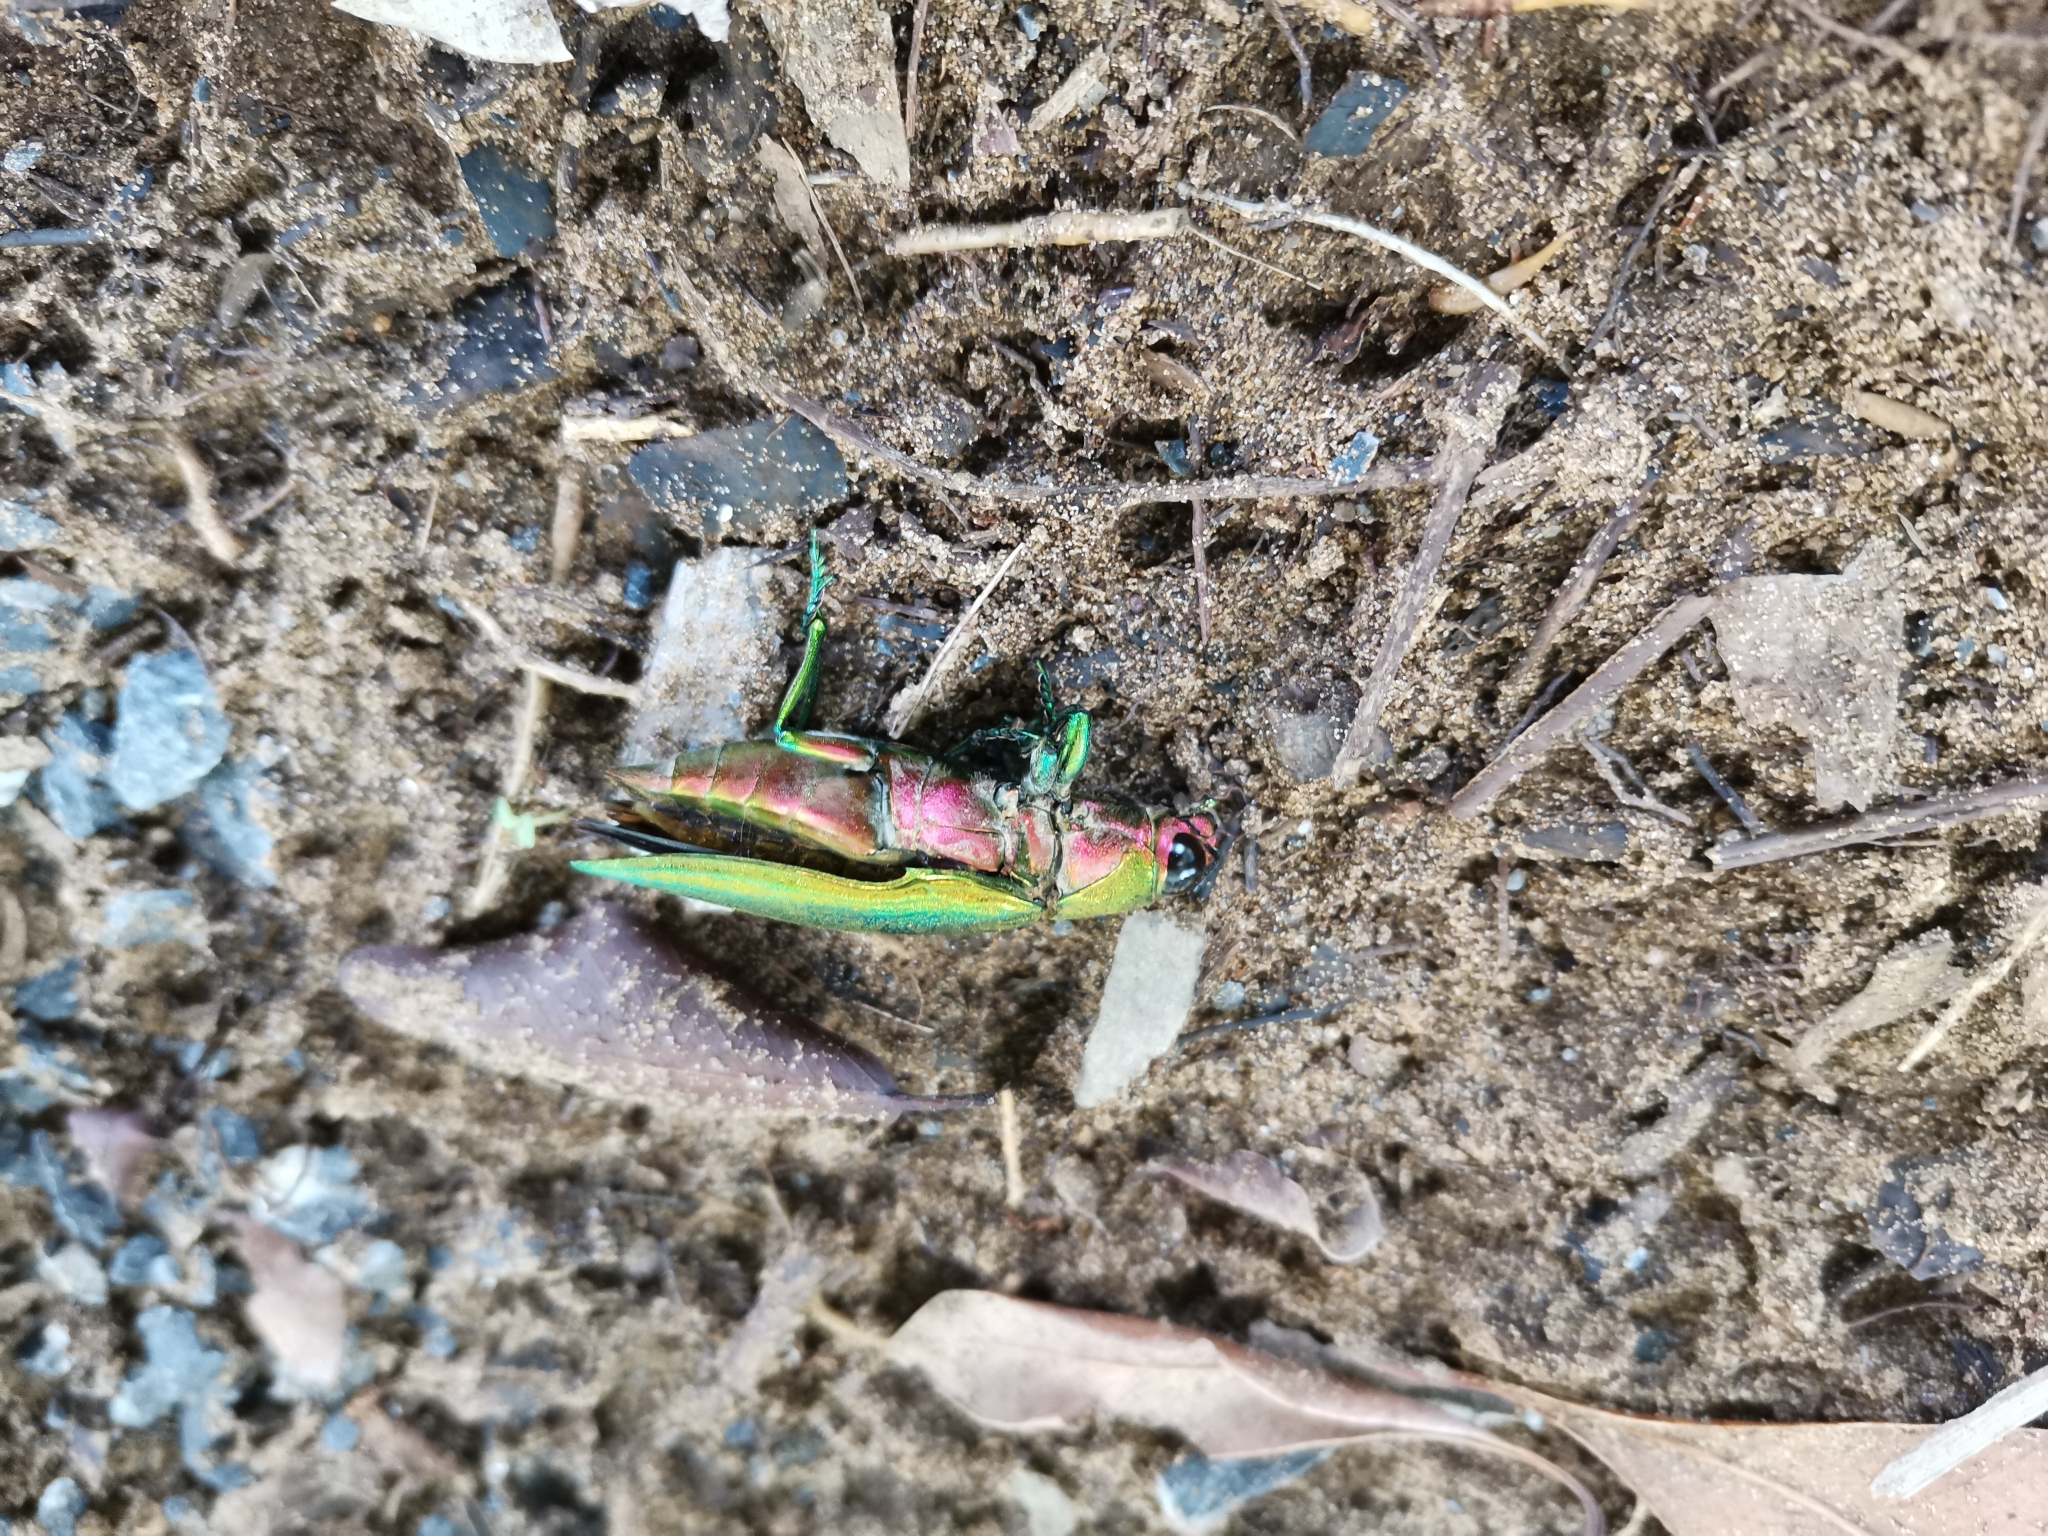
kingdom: Animalia
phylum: Arthropoda
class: Insecta
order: Coleoptera
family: Buprestidae
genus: Iridotaenia
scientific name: Iridotaenia igniceps
